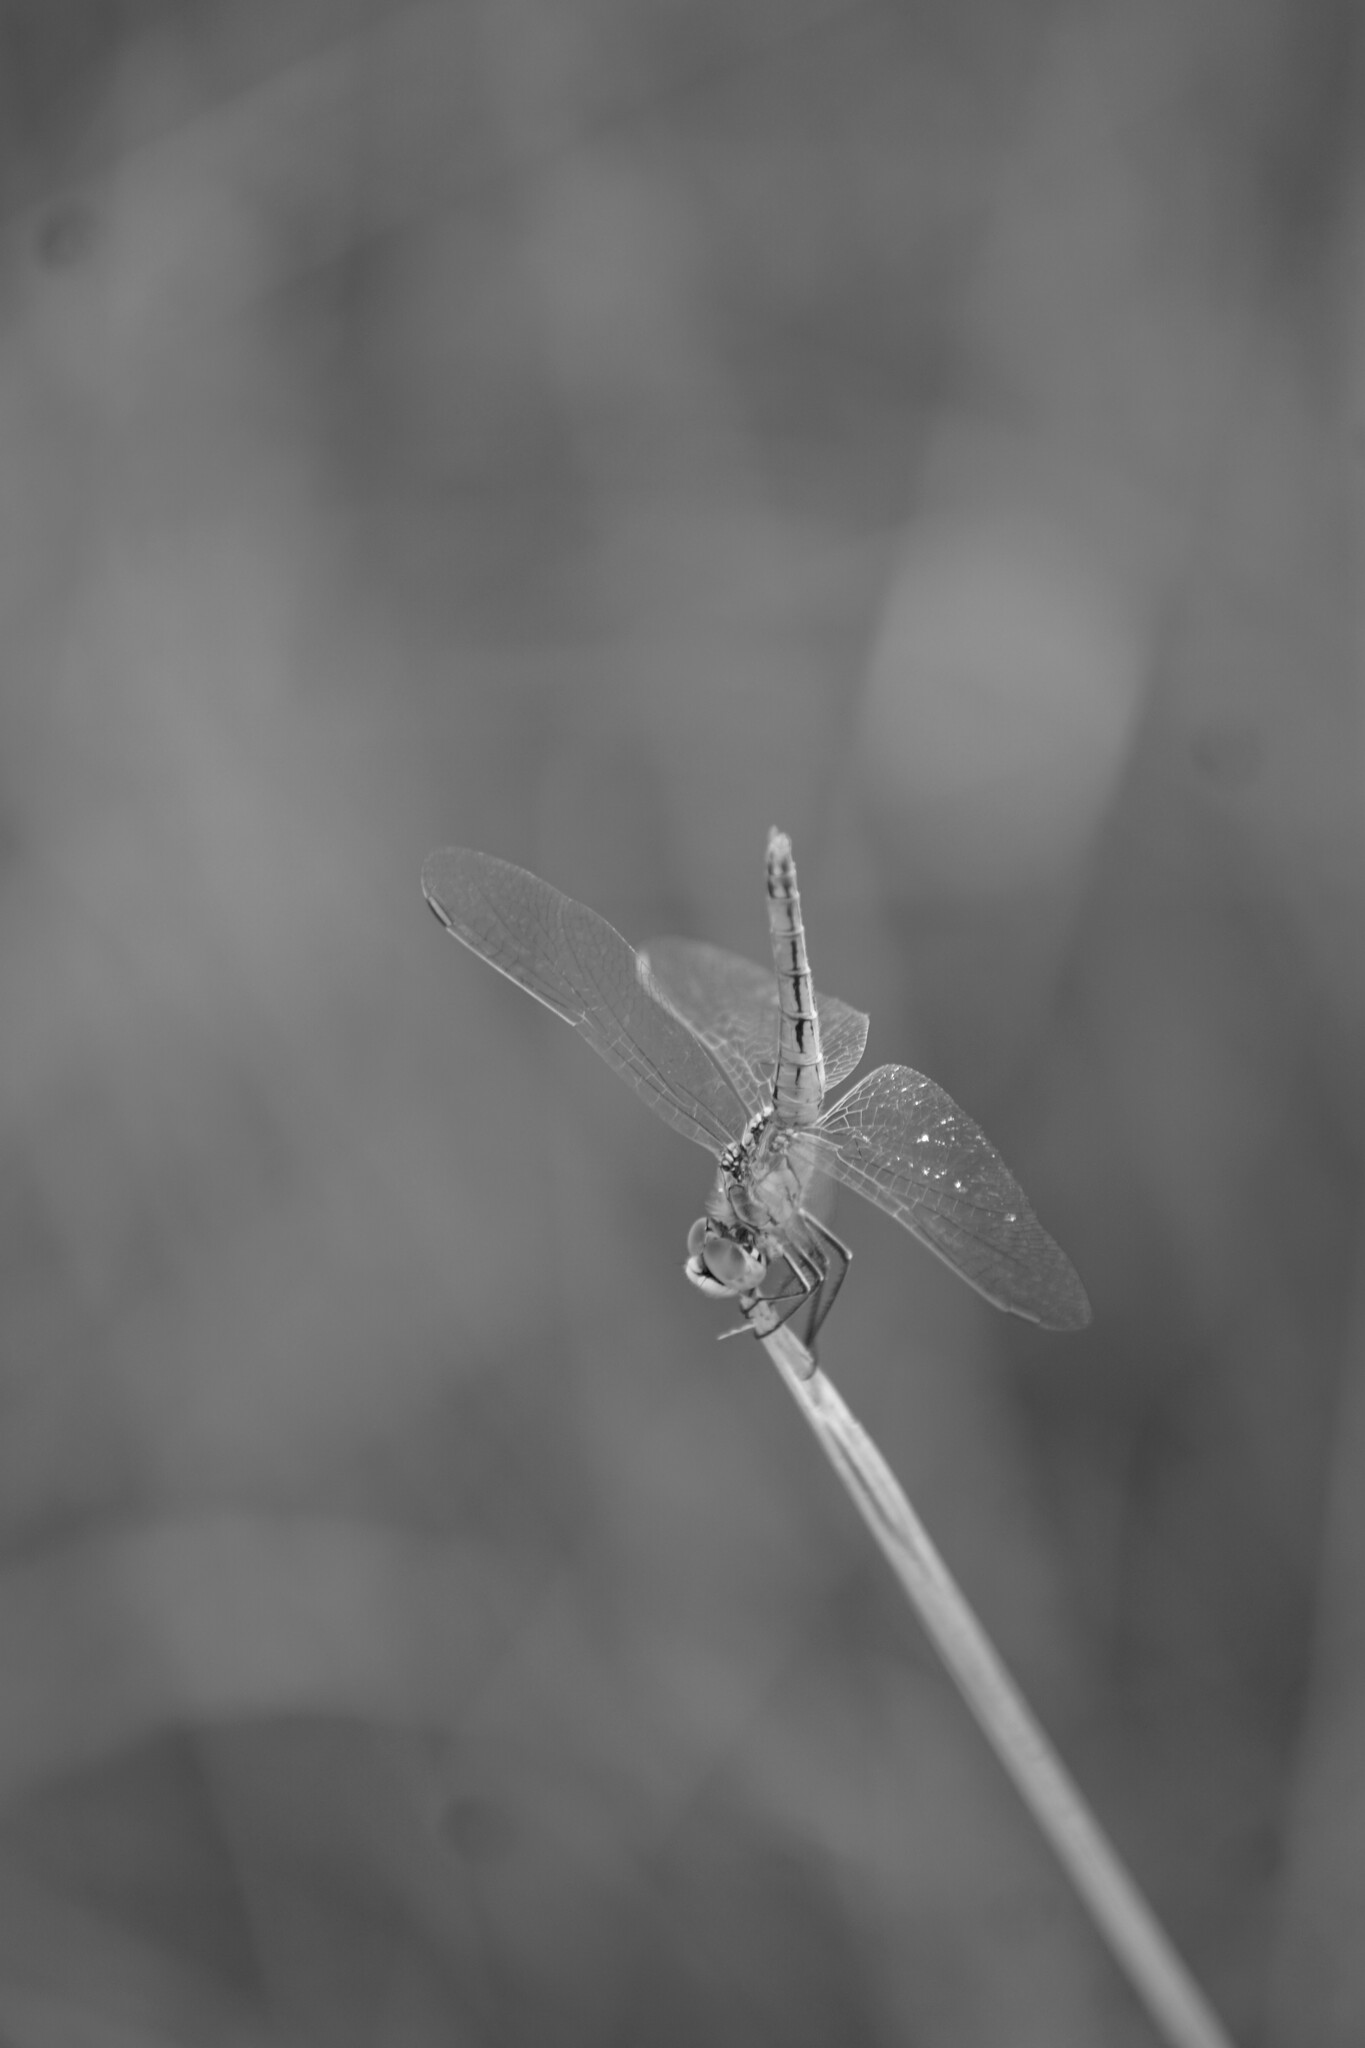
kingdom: Animalia
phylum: Arthropoda
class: Insecta
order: Odonata
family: Libellulidae
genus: Sympetrum
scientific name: Sympetrum fonscolombii
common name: Red-veined darter
